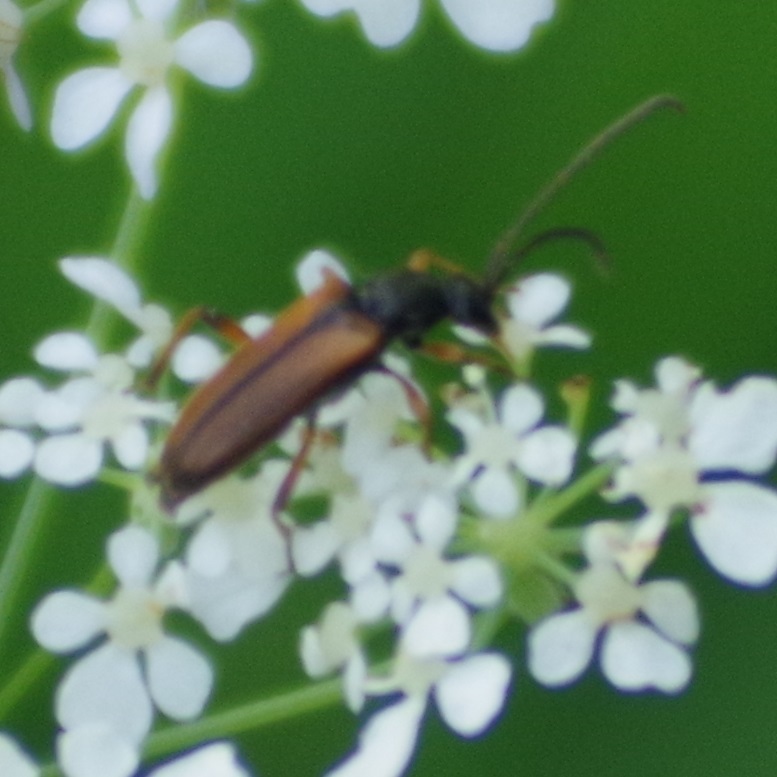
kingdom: Animalia
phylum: Arthropoda
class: Insecta
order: Coleoptera
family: Cerambycidae
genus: Alosterna
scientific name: Alosterna tabacicolor
